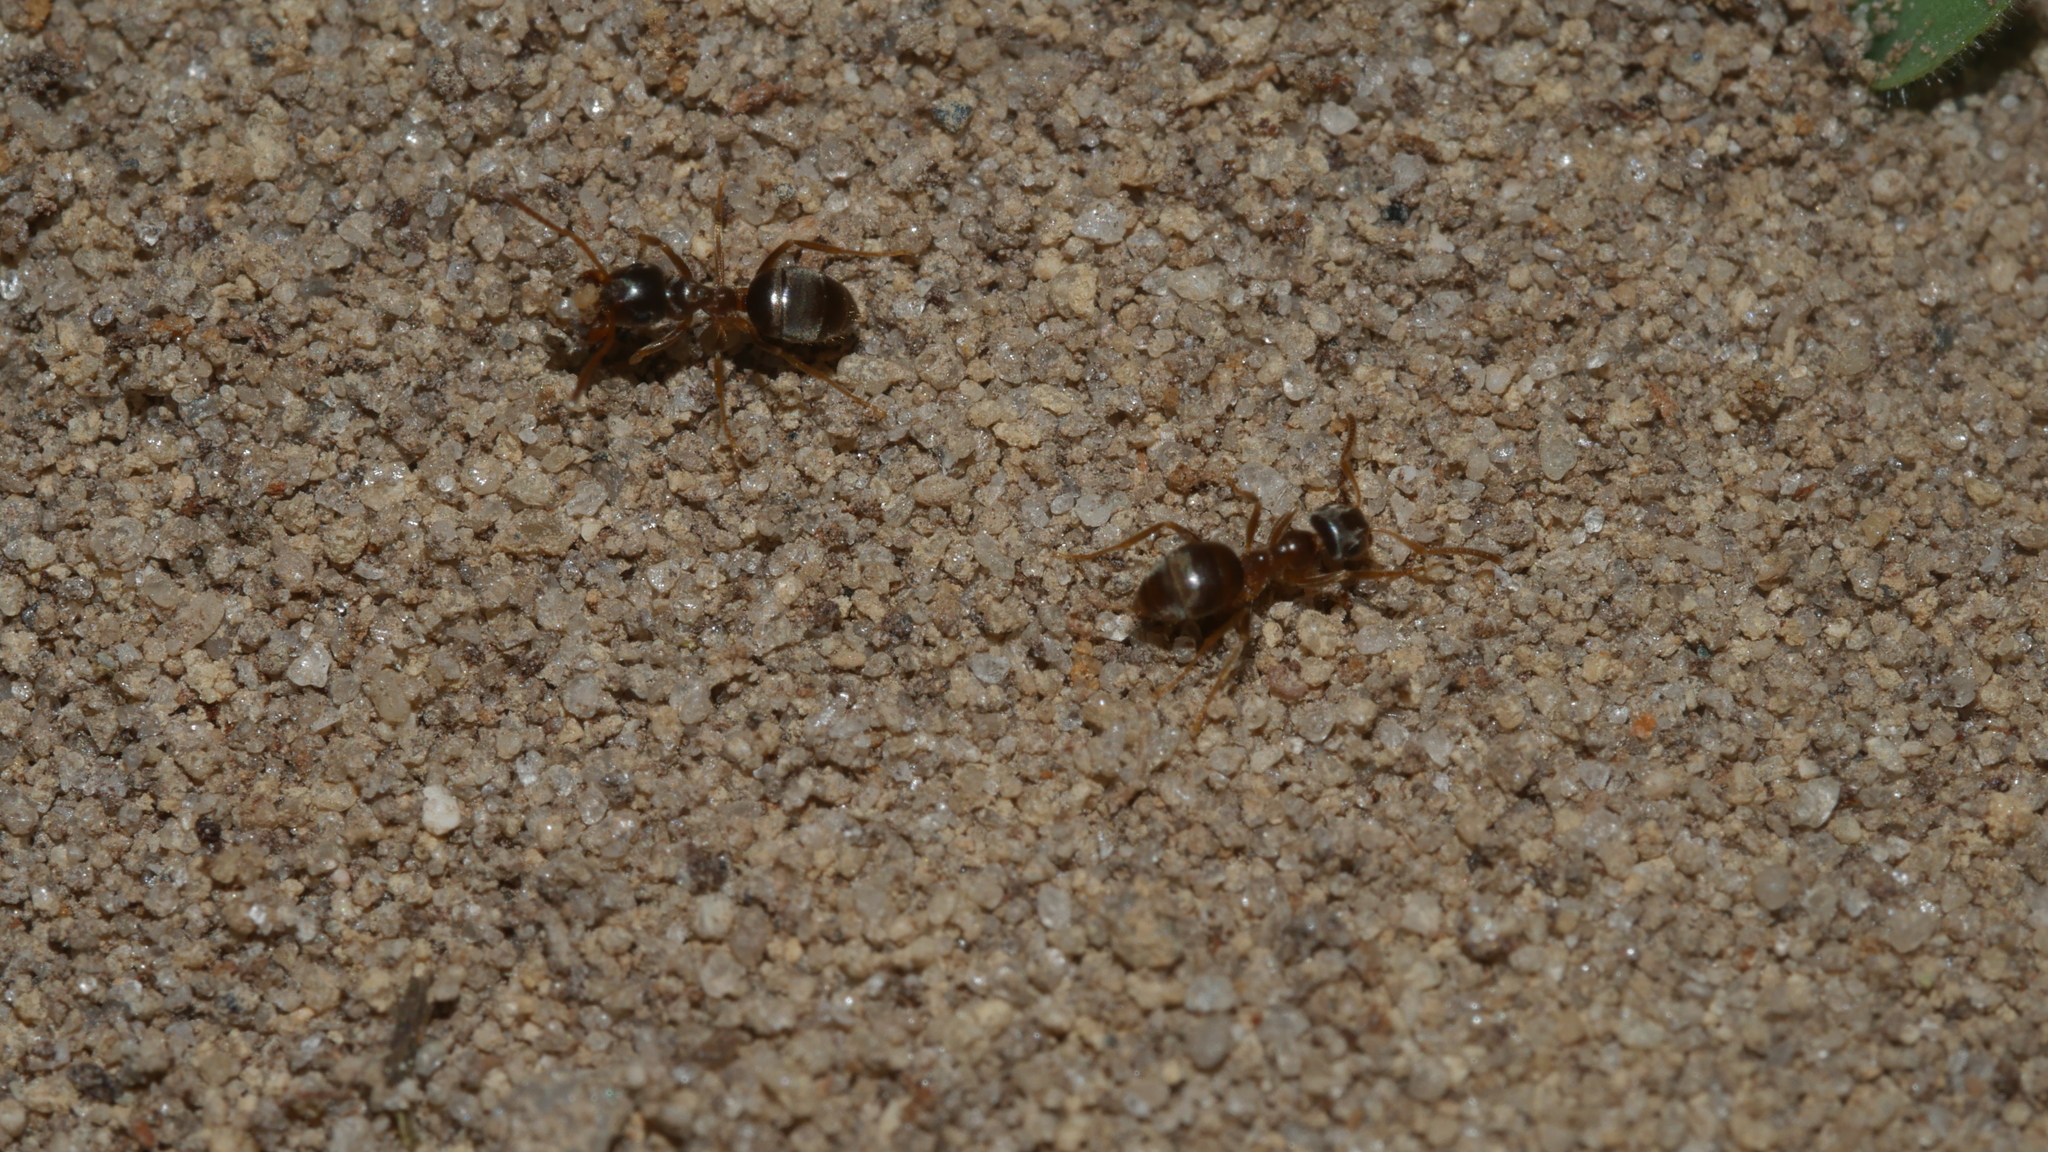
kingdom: Animalia
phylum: Arthropoda
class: Insecta
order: Hymenoptera
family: Formicidae
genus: Lasius
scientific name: Lasius neoniger
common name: Turfgrass ant
